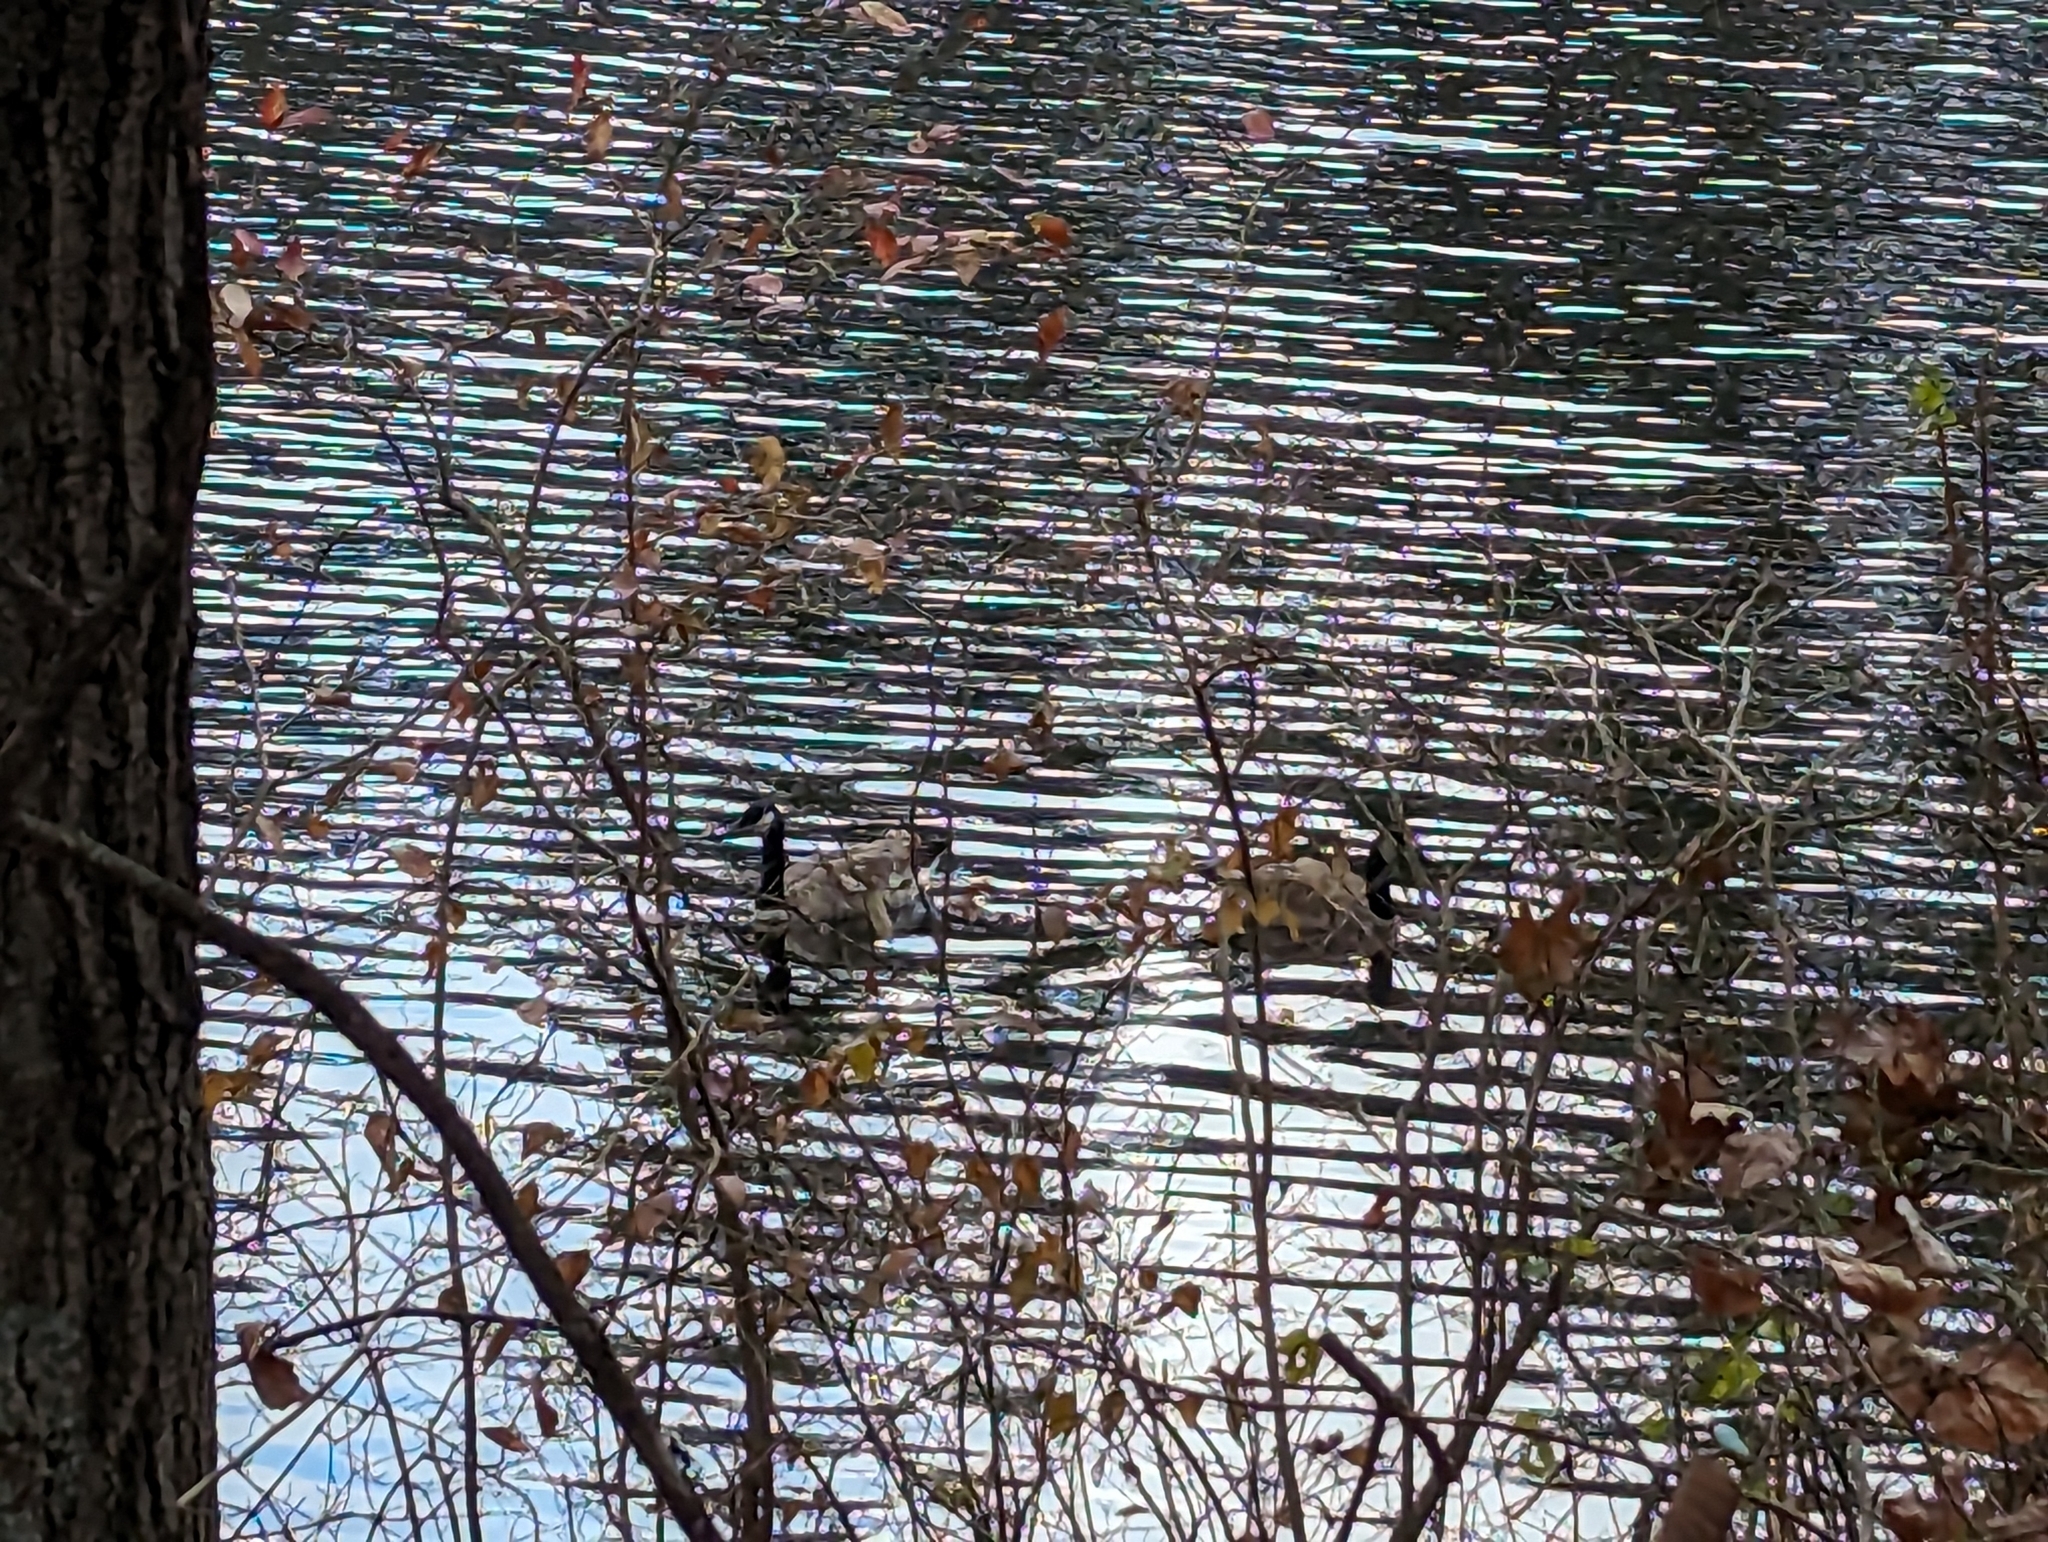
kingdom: Animalia
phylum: Chordata
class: Aves
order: Anseriformes
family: Anatidae
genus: Branta
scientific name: Branta canadensis
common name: Canada goose
